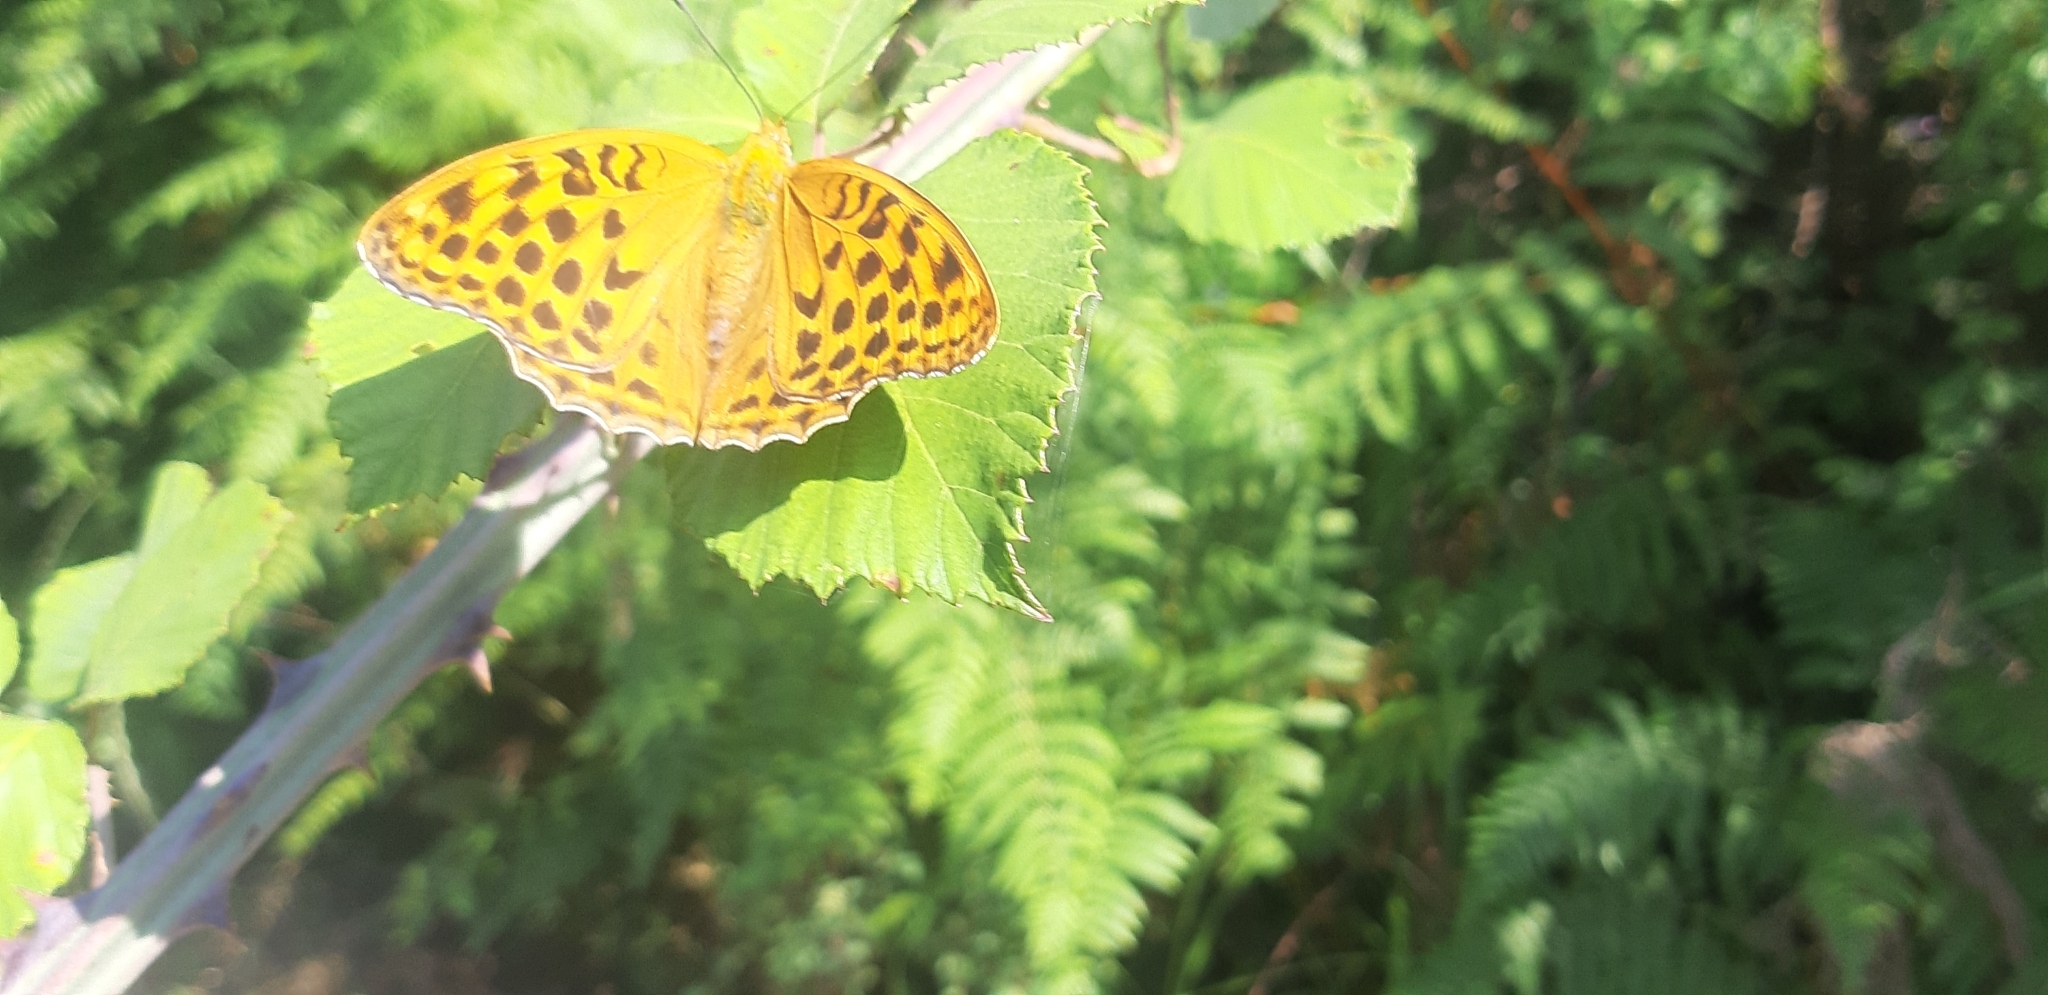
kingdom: Animalia
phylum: Arthropoda
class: Insecta
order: Lepidoptera
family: Nymphalidae
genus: Argynnis
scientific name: Argynnis paphia
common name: Silver-washed fritillary
